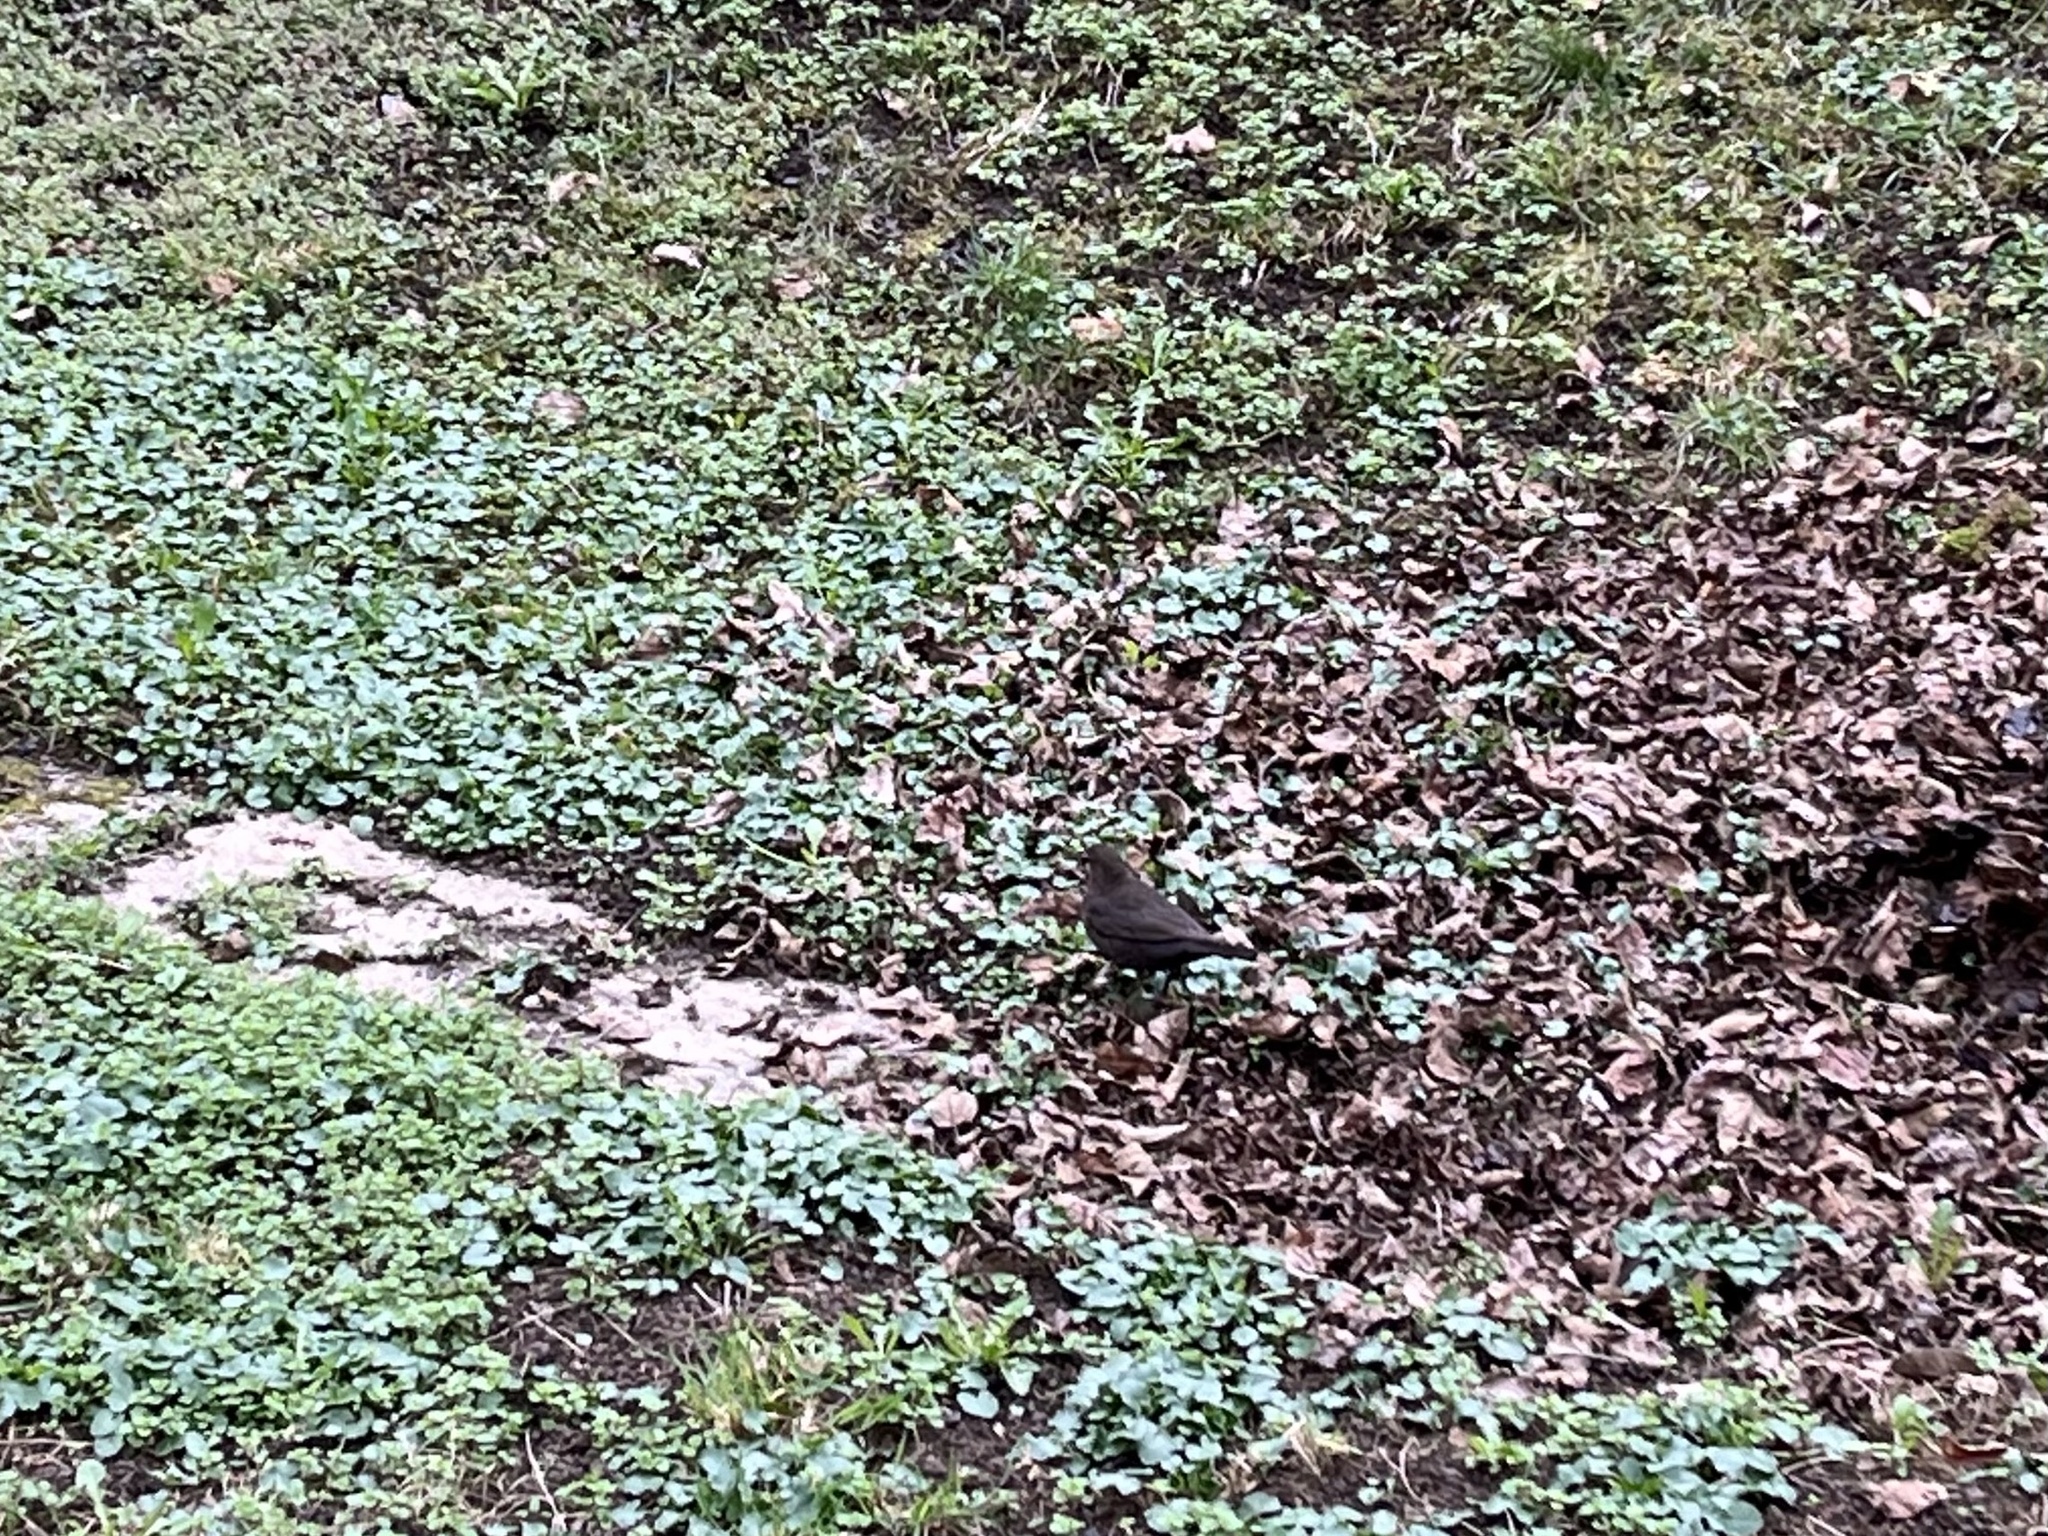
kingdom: Animalia
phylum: Chordata
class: Aves
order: Passeriformes
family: Turdidae
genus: Turdus
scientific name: Turdus merula
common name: Common blackbird
